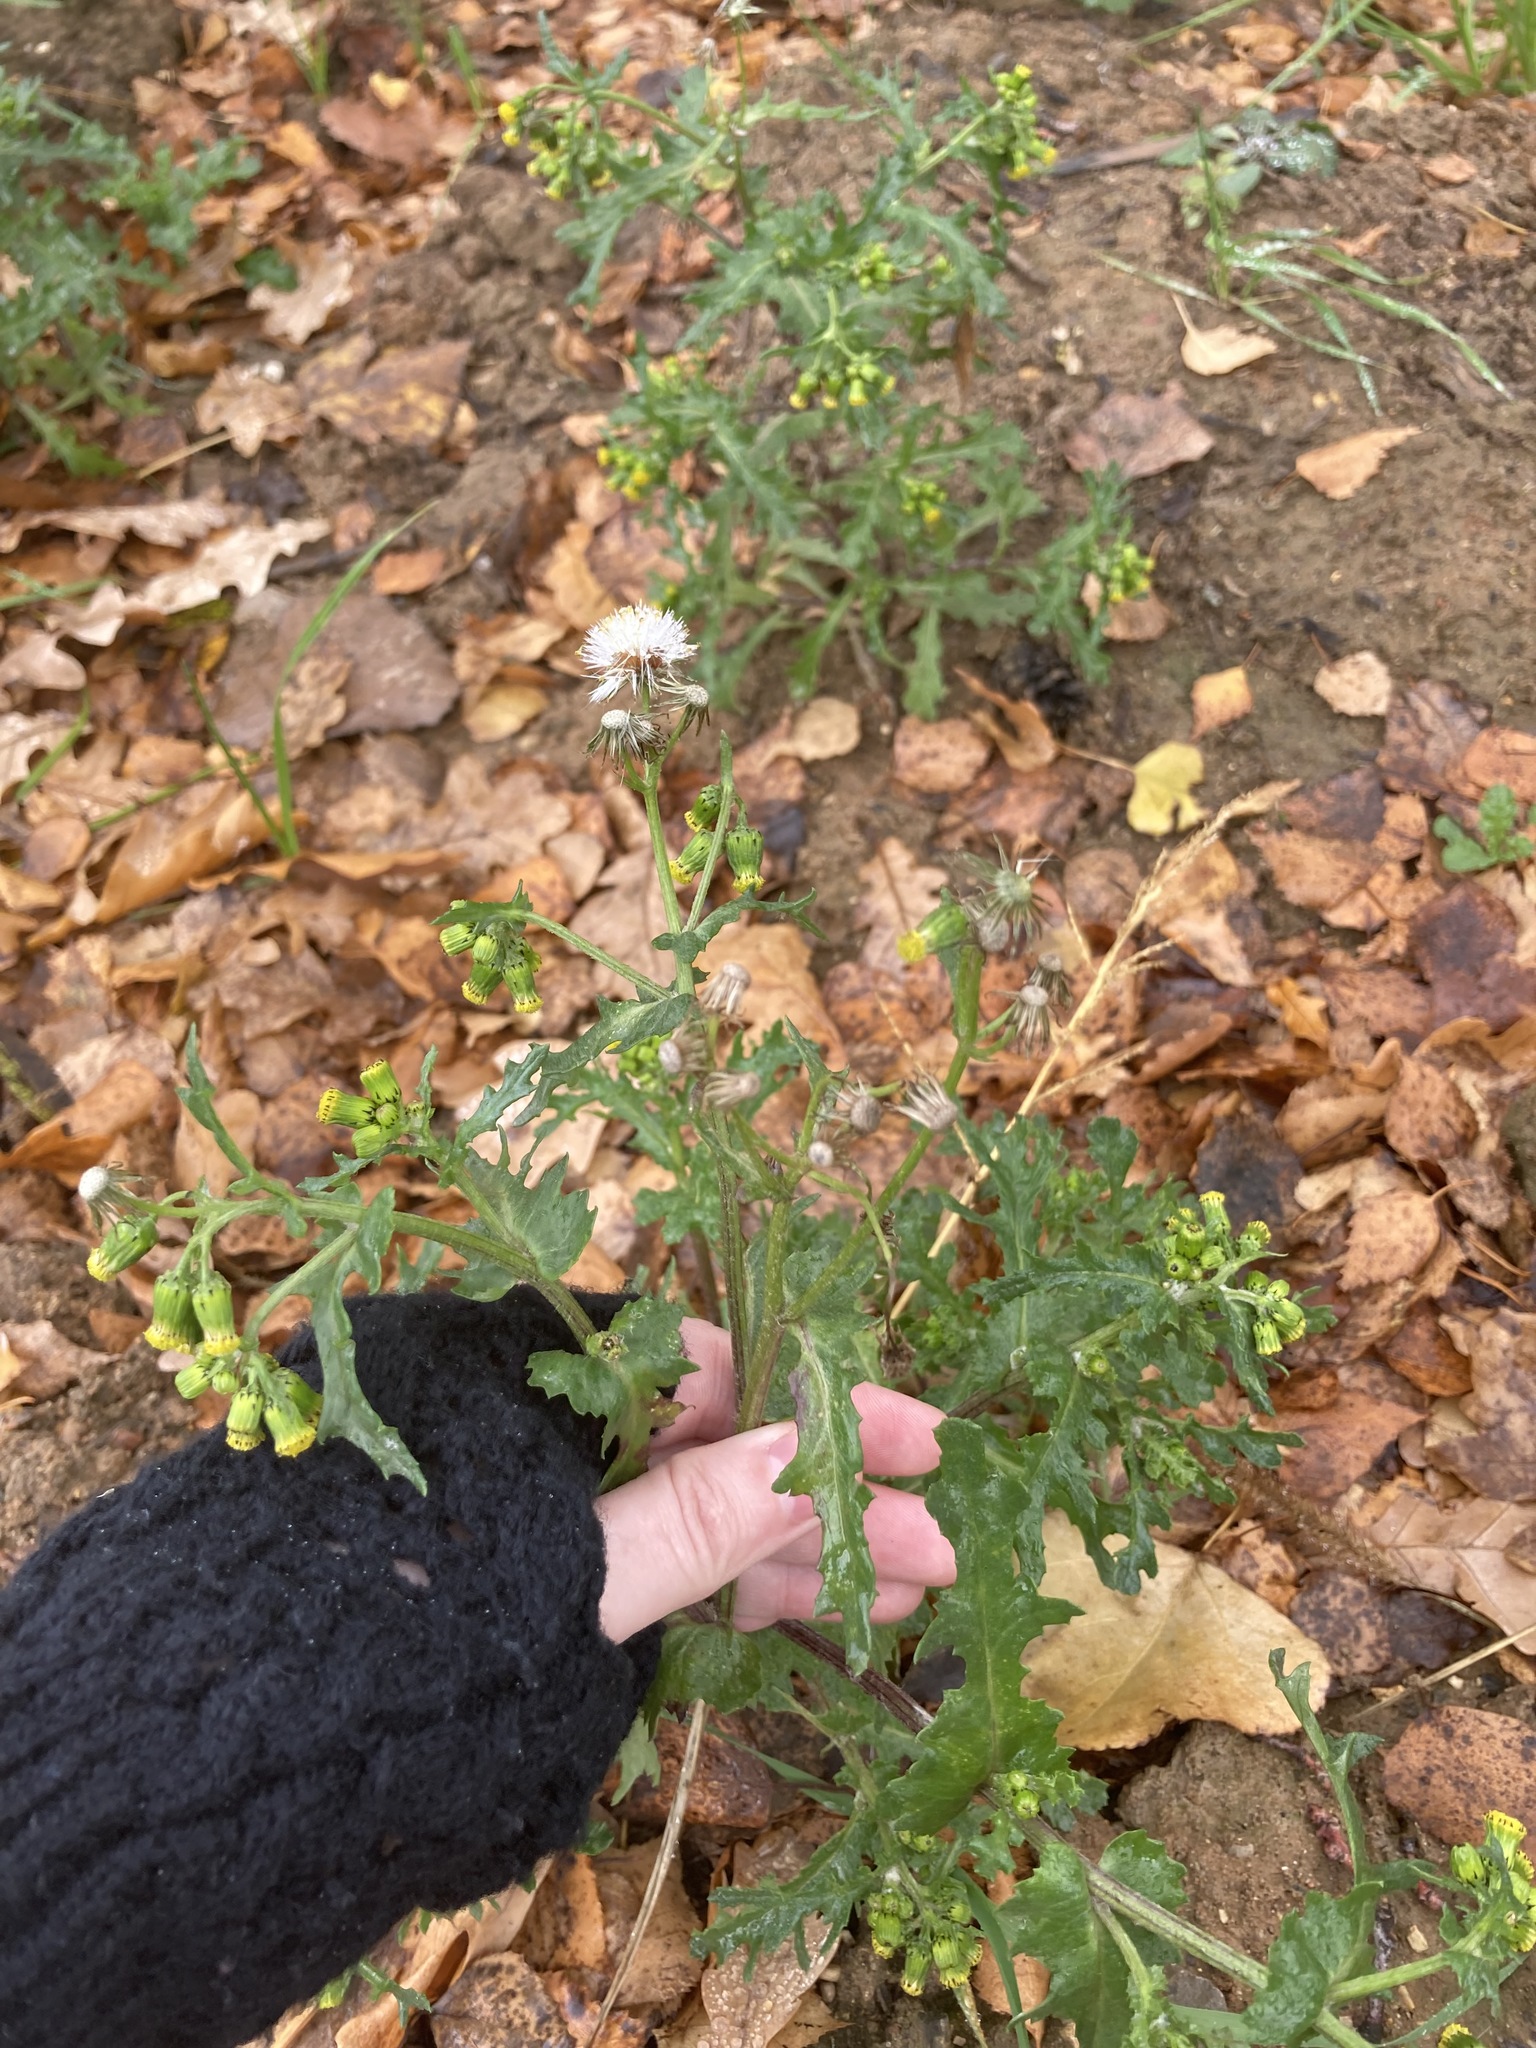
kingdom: Plantae
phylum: Tracheophyta
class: Magnoliopsida
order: Asterales
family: Asteraceae
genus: Senecio
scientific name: Senecio vulgaris
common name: Old-man-in-the-spring
